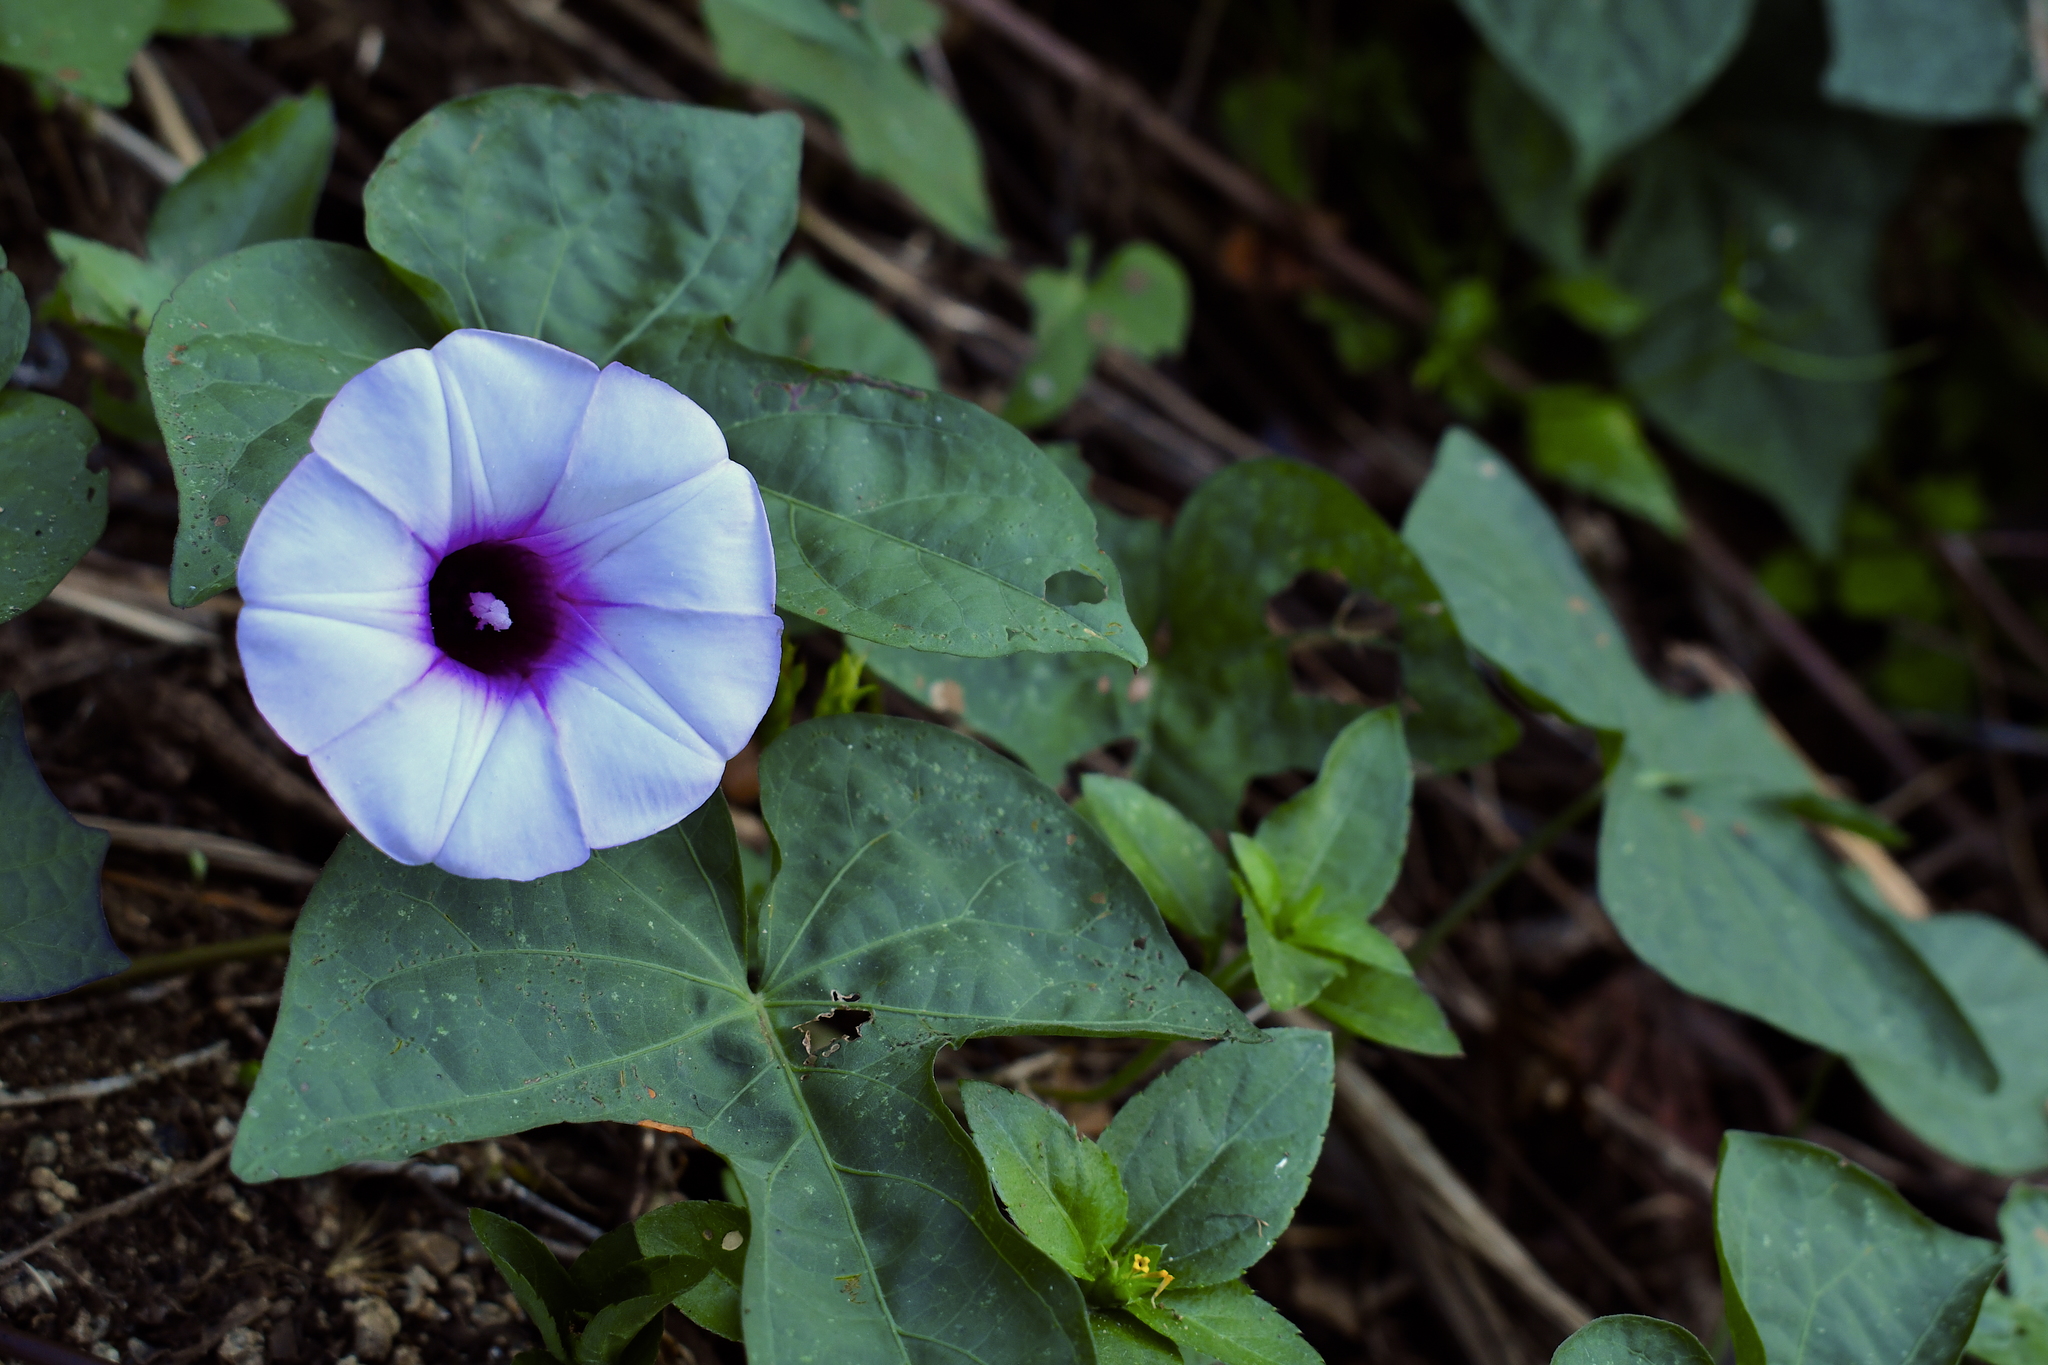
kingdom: Plantae
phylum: Tracheophyta
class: Magnoliopsida
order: Solanales
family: Convolvulaceae
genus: Ipomoea
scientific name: Ipomoea batatas
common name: Sweet-potato
